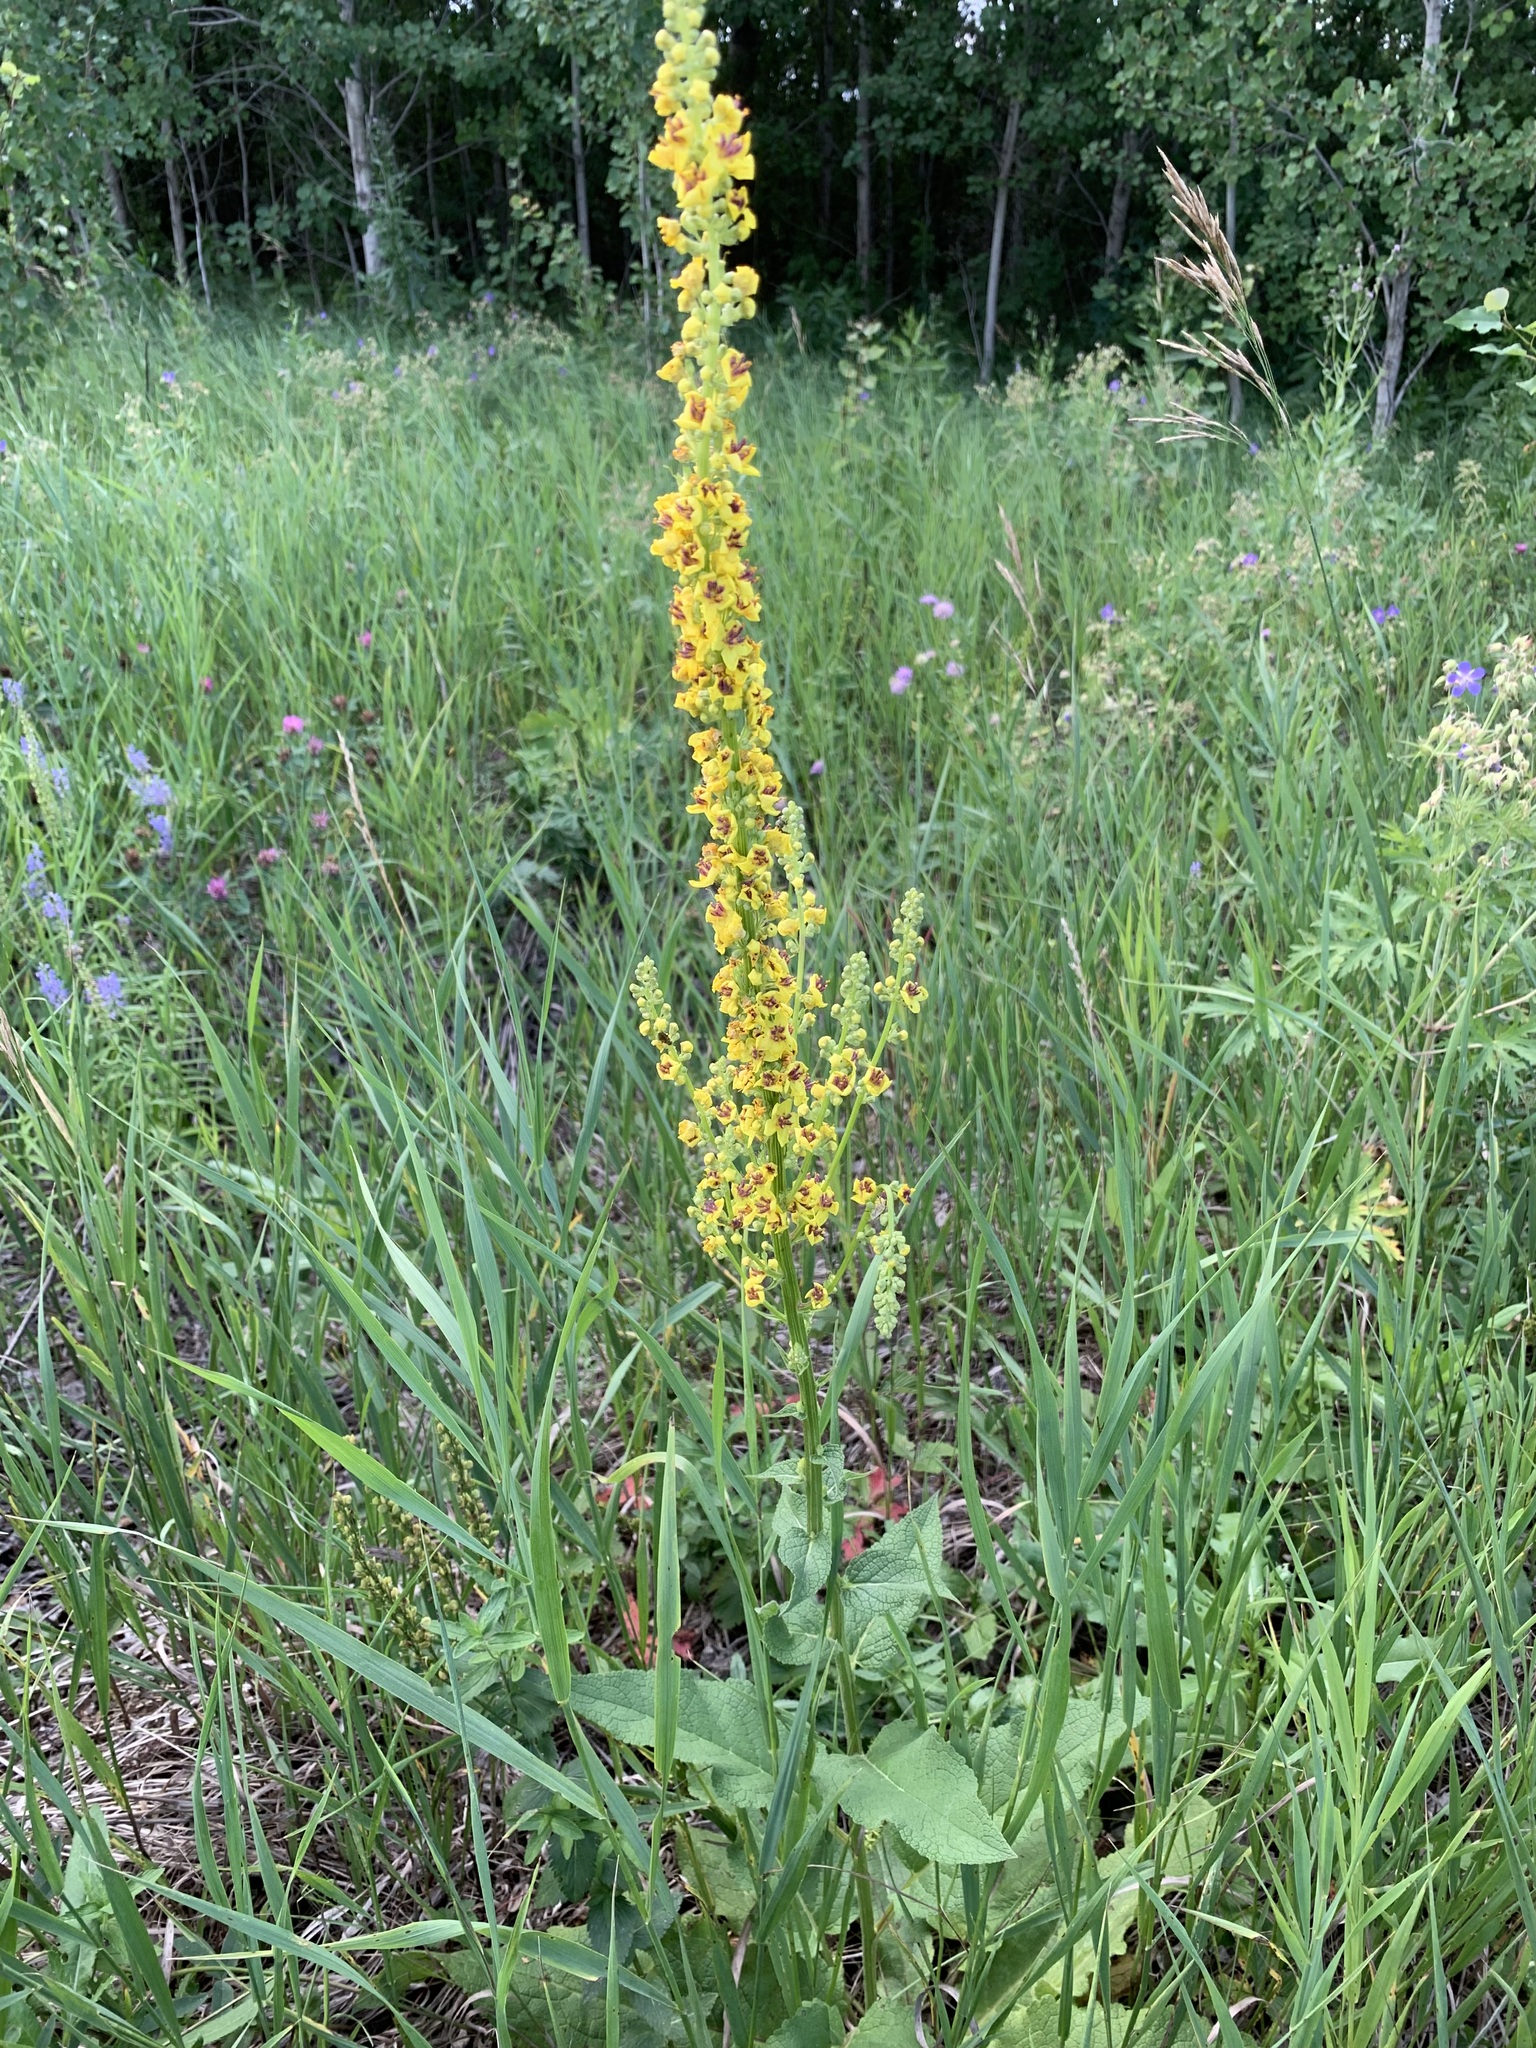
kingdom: Plantae
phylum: Tracheophyta
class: Magnoliopsida
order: Lamiales
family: Scrophulariaceae
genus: Verbascum
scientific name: Verbascum nigrum
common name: Dark mullein
